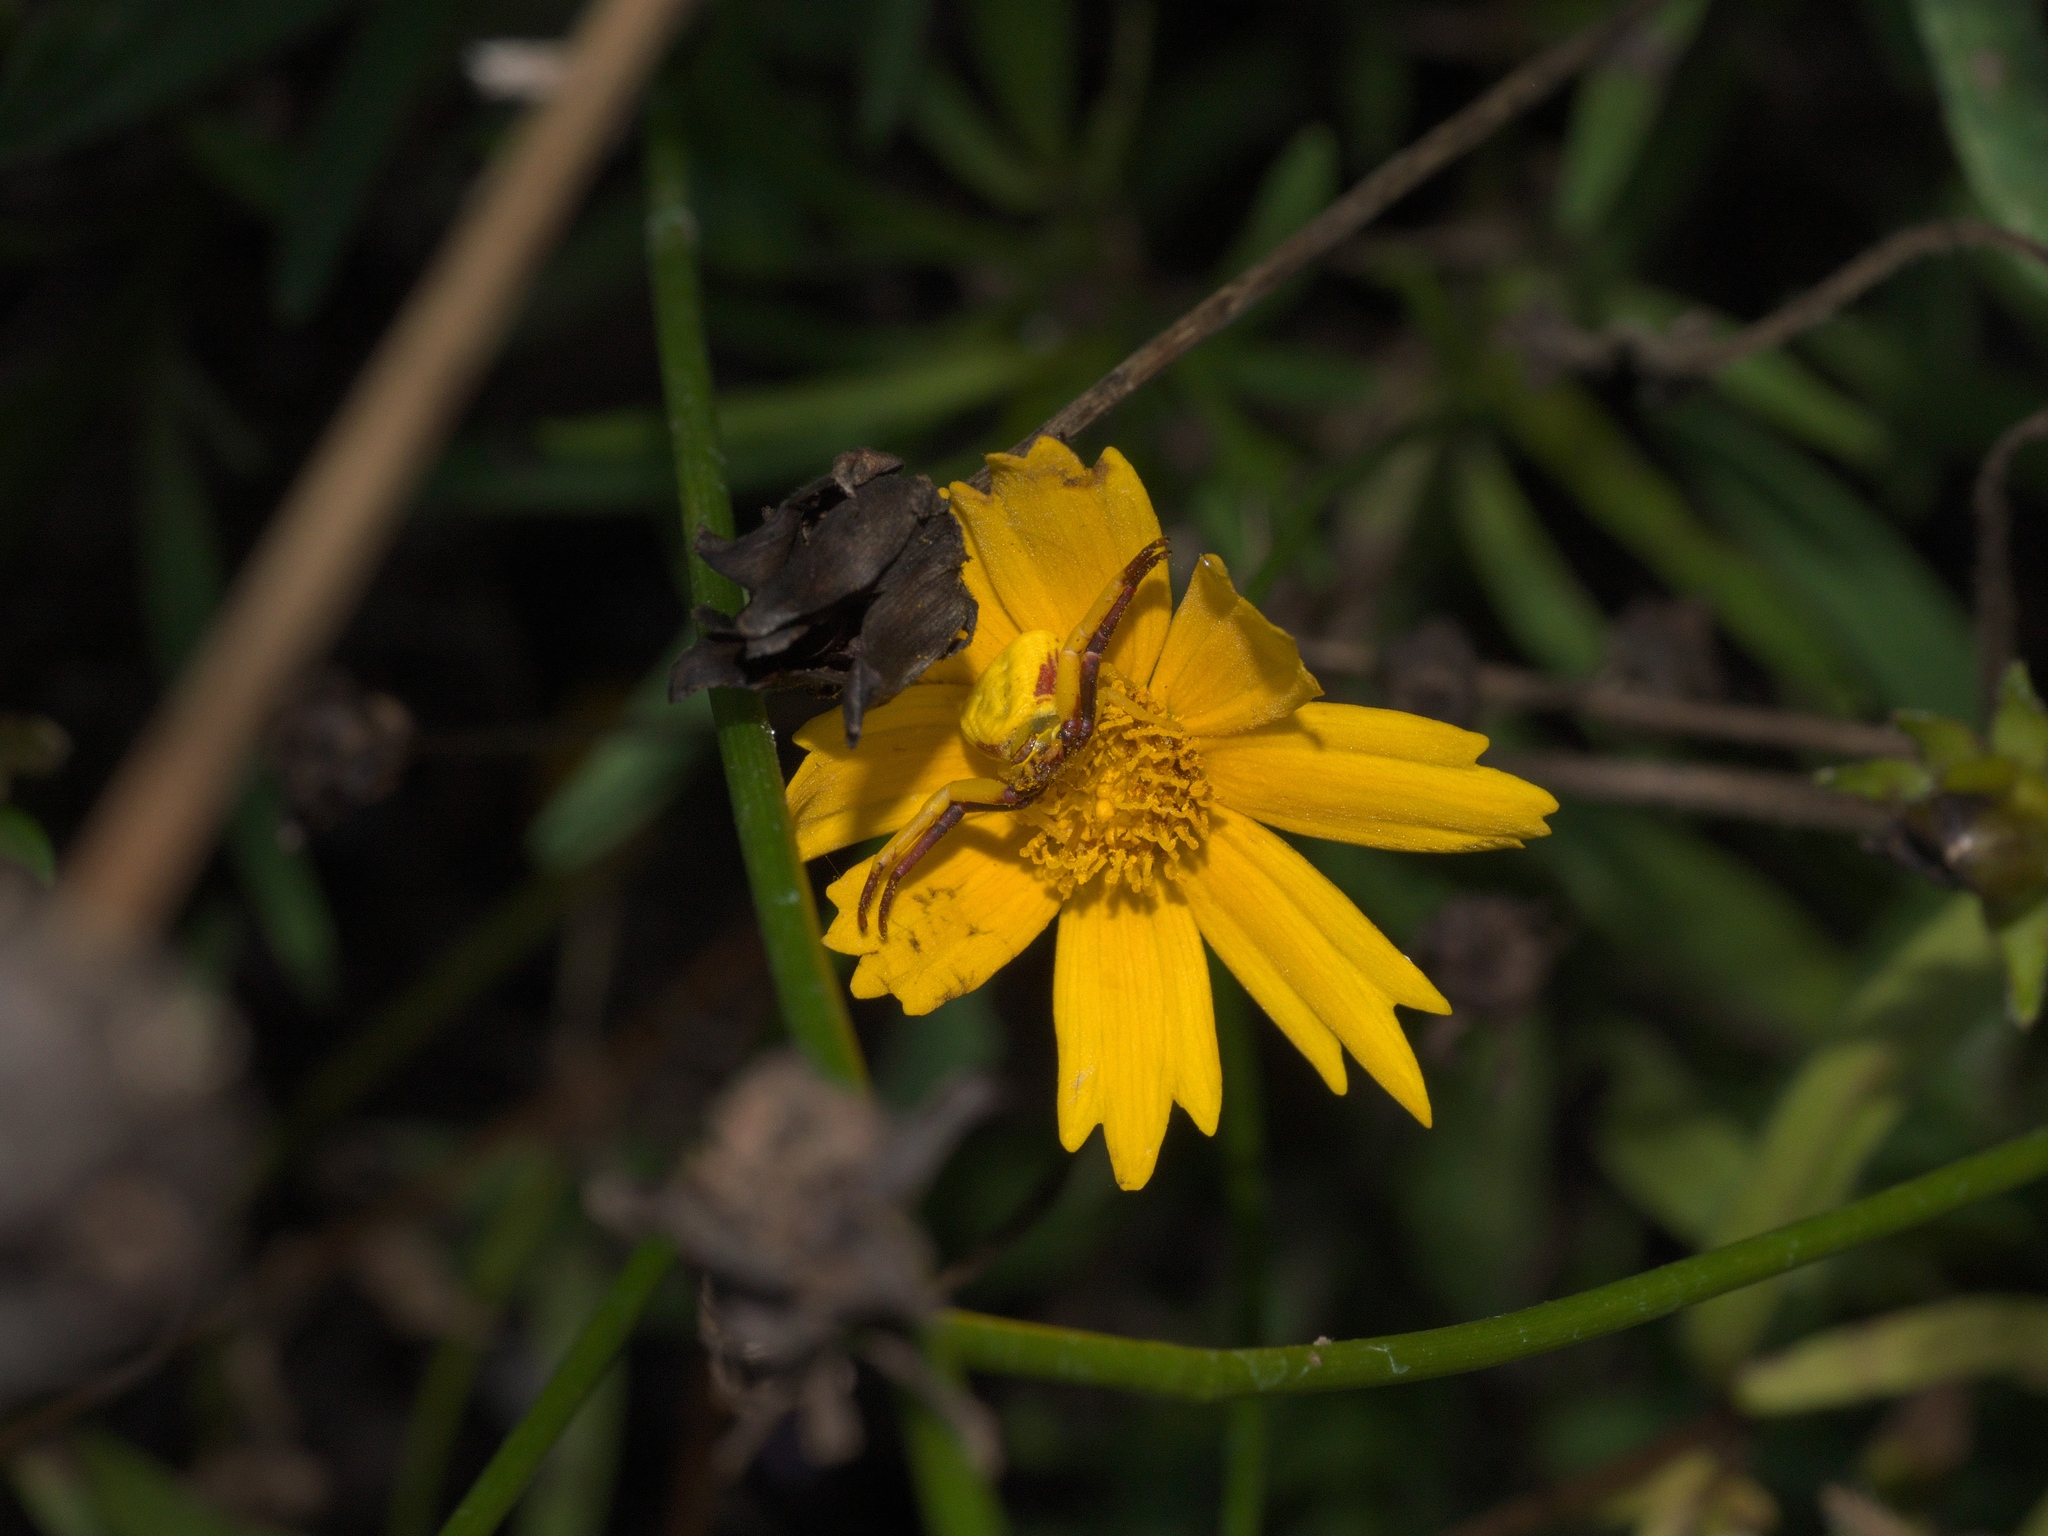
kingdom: Animalia
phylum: Arthropoda
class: Arachnida
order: Araneae
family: Thomisidae
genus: Misumenoides
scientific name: Misumenoides formosipes
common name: White-banded crab spider
